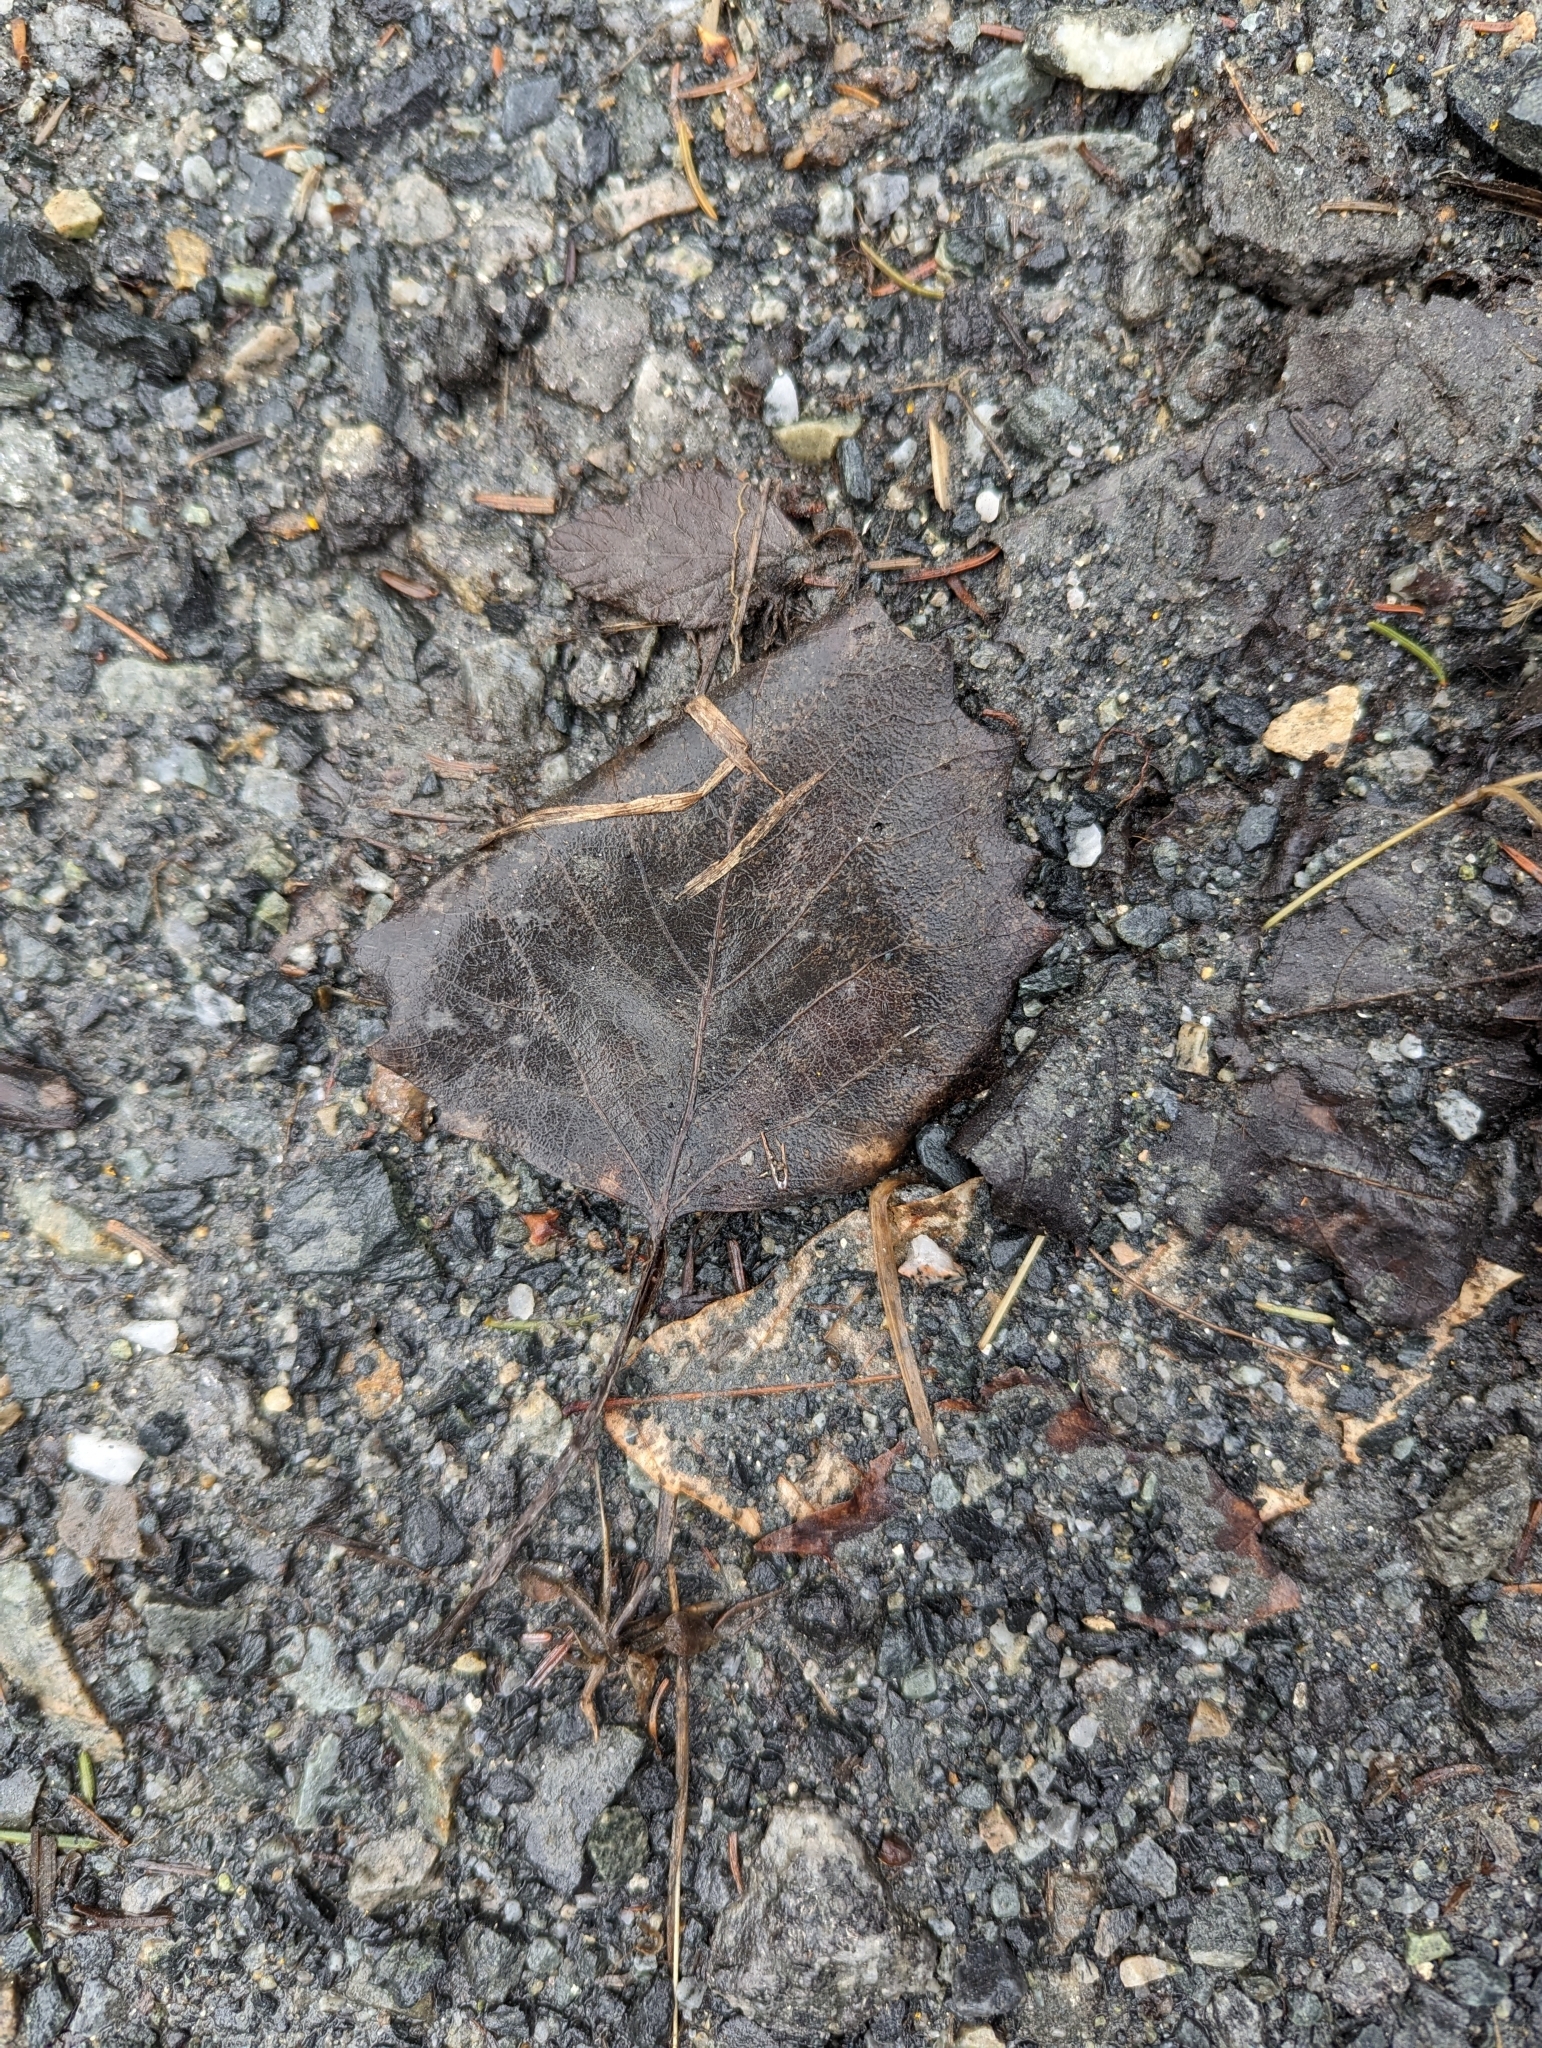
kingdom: Plantae
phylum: Tracheophyta
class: Magnoliopsida
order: Malpighiales
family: Salicaceae
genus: Populus
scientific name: Populus grandidentata
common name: Bigtooth aspen
